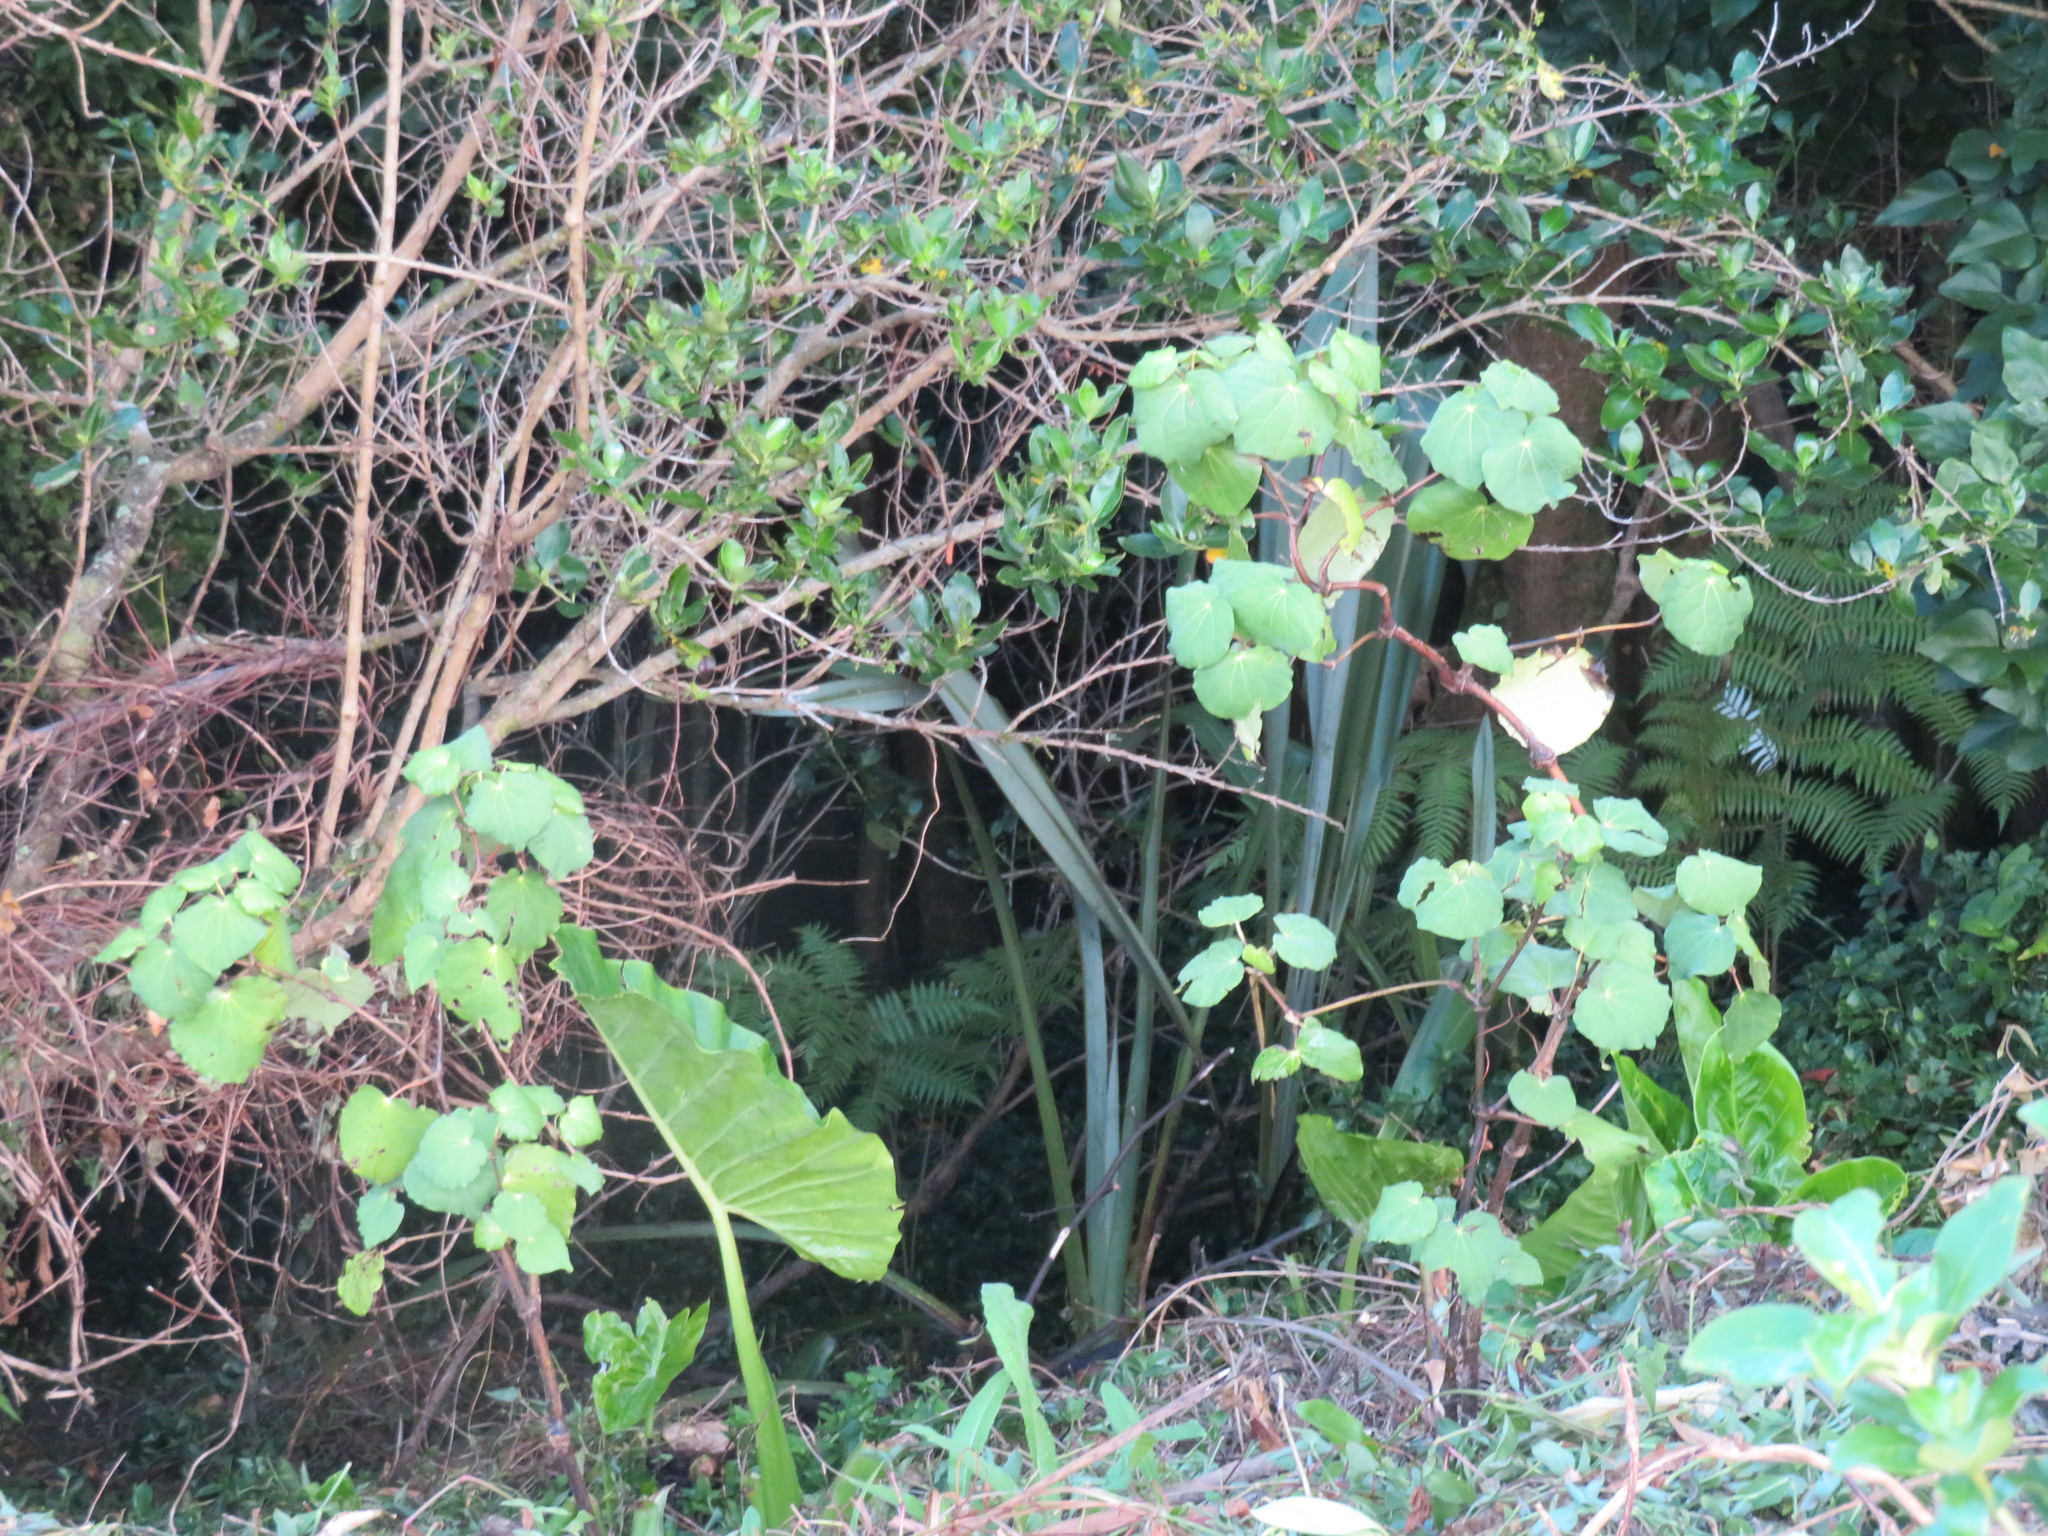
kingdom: Plantae
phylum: Tracheophyta
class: Magnoliopsida
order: Piperales
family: Piperaceae
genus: Macropiper
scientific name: Macropiper excelsum
